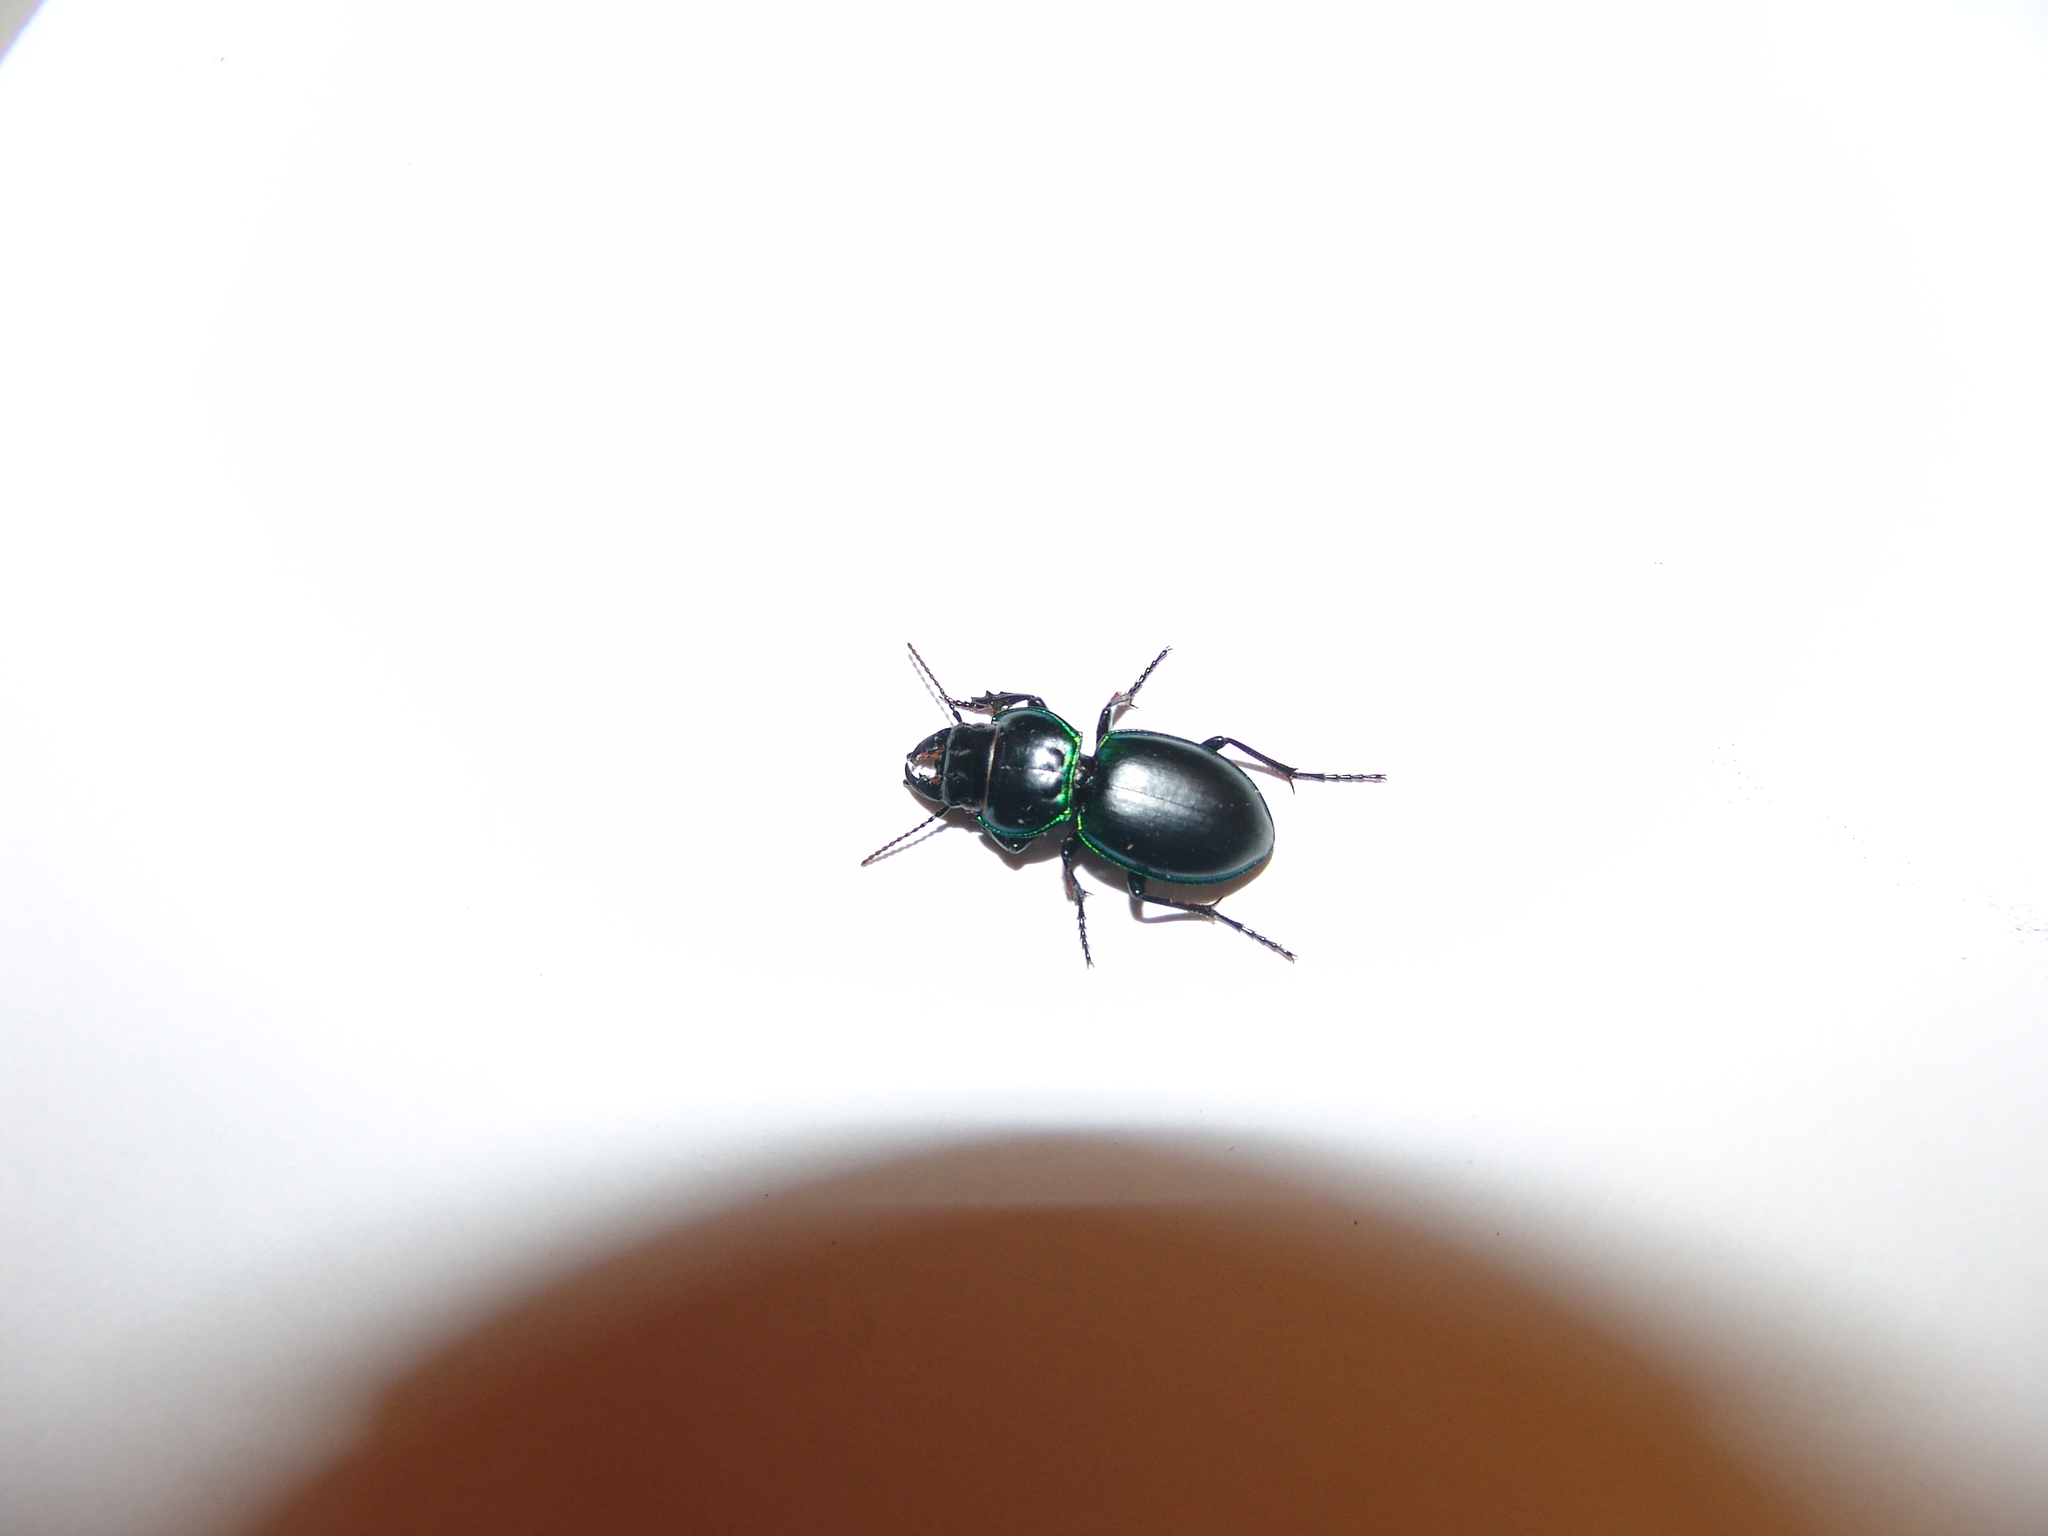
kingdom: Animalia
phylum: Arthropoda
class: Insecta
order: Coleoptera
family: Carabidae
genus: Pasimachus
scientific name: Pasimachus viridans
